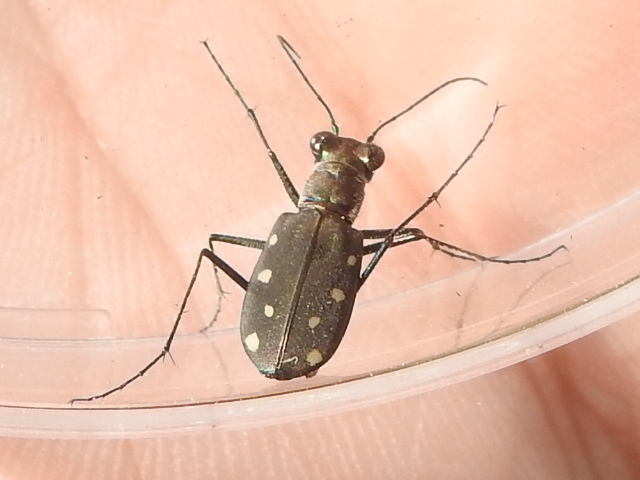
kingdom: Animalia
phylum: Arthropoda
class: Insecta
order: Coleoptera
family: Carabidae
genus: Cicindela
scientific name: Cicindela ocellata
